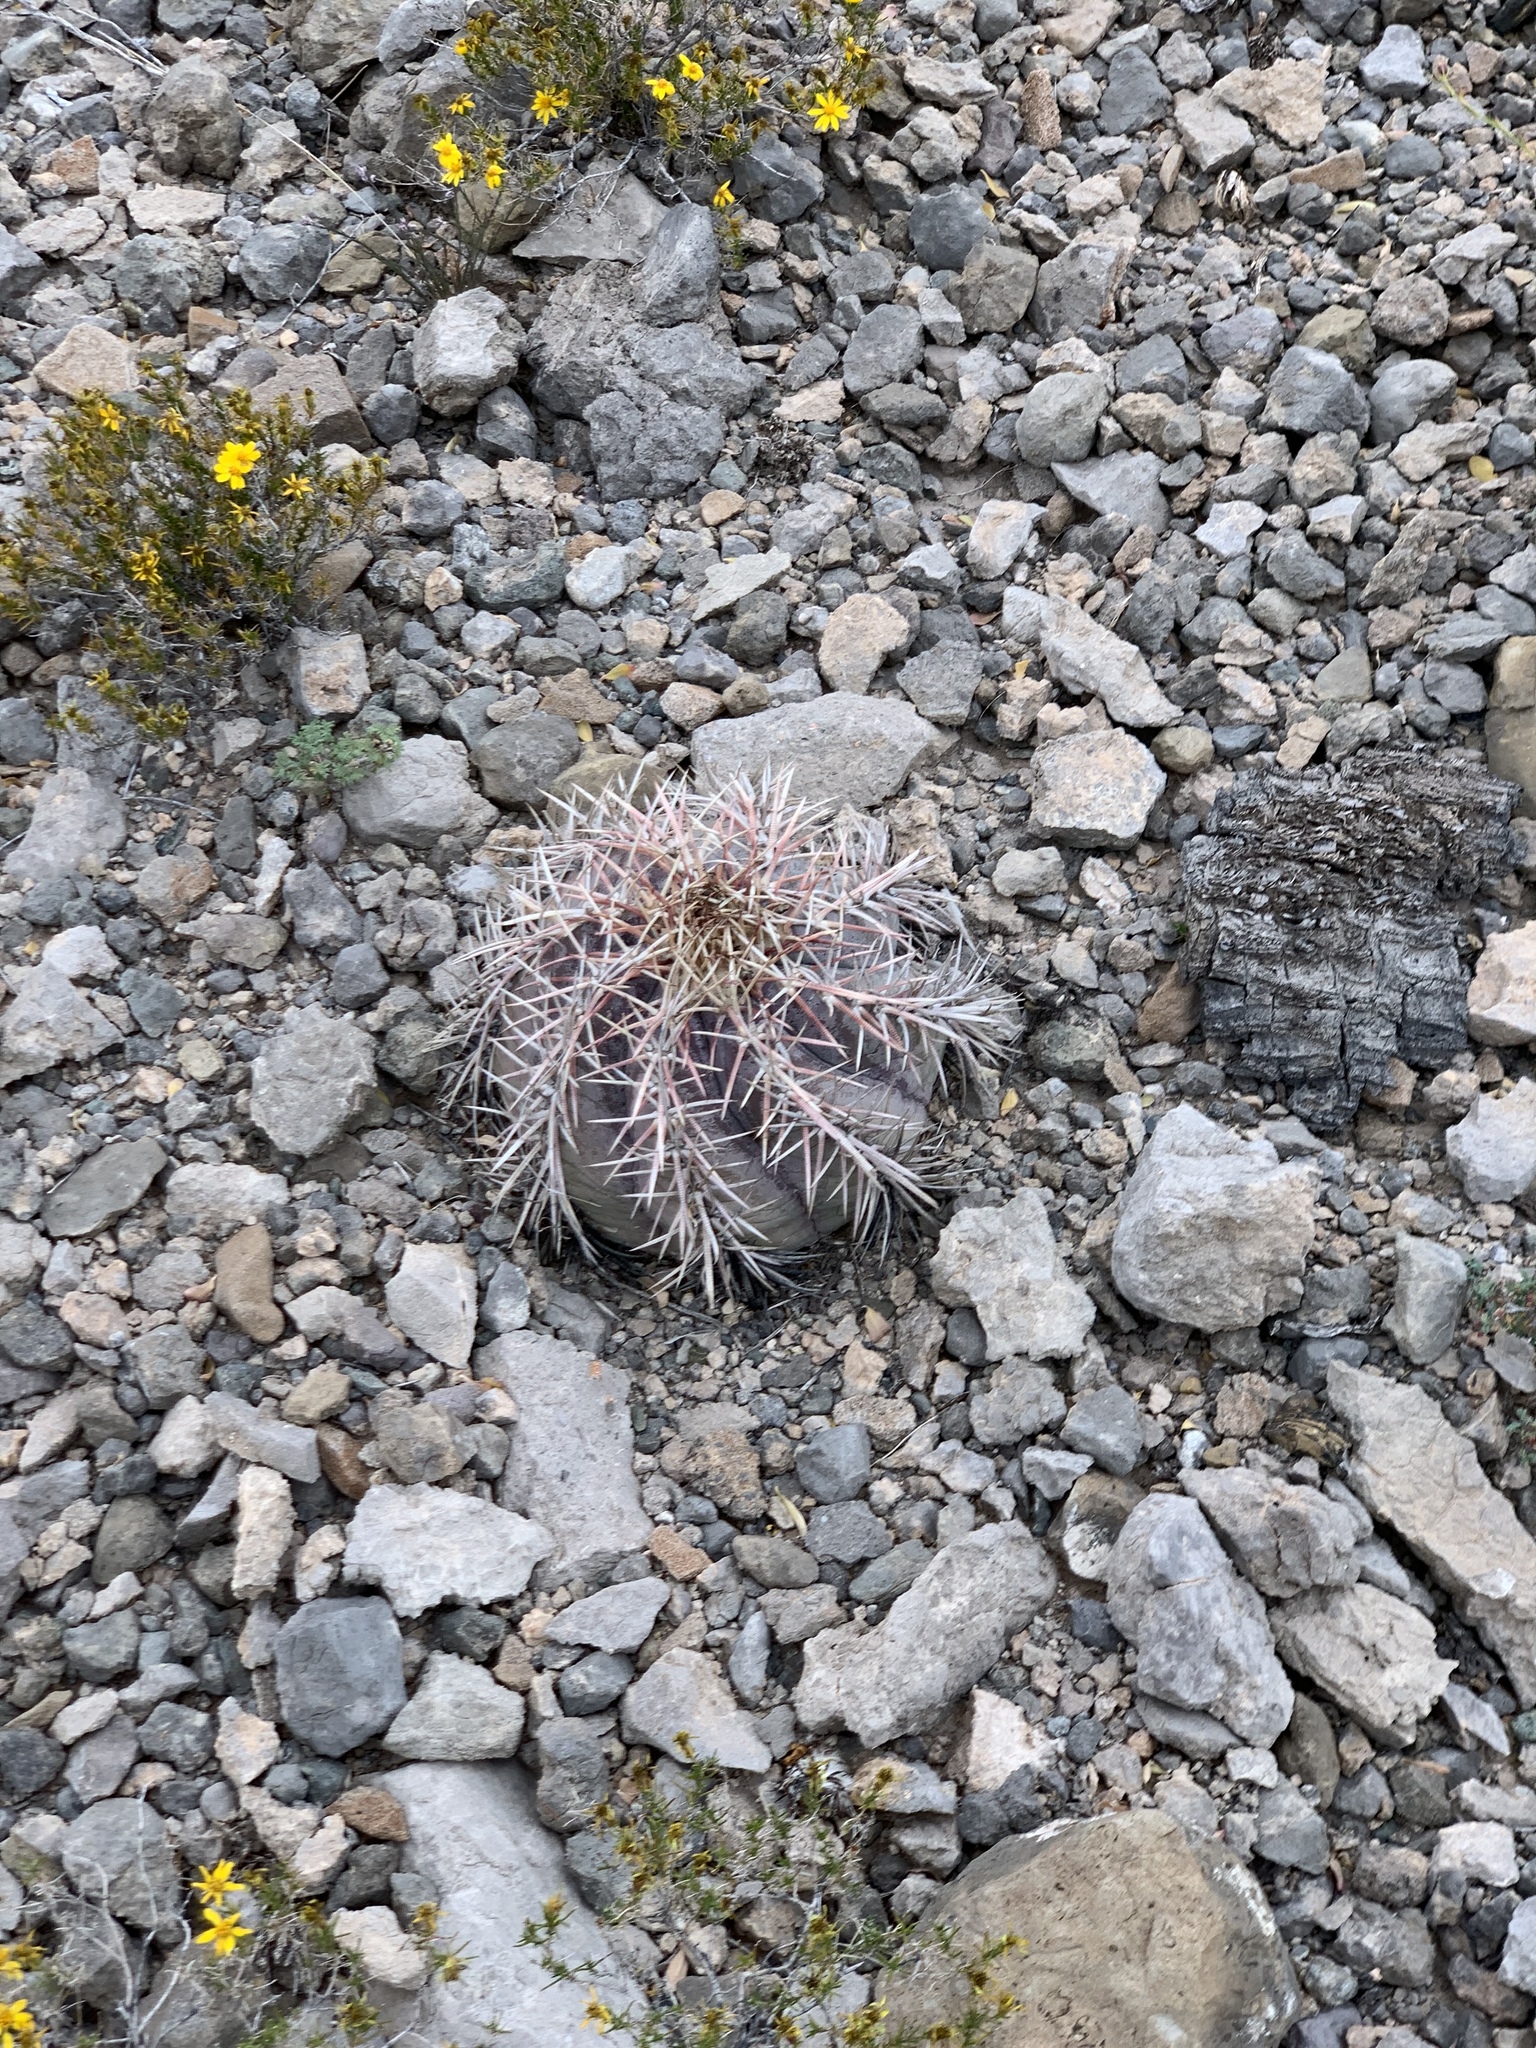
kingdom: Plantae
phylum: Tracheophyta
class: Magnoliopsida
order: Caryophyllales
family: Cactaceae
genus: Echinocactus
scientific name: Echinocactus horizonthalonius
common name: Devilshead
